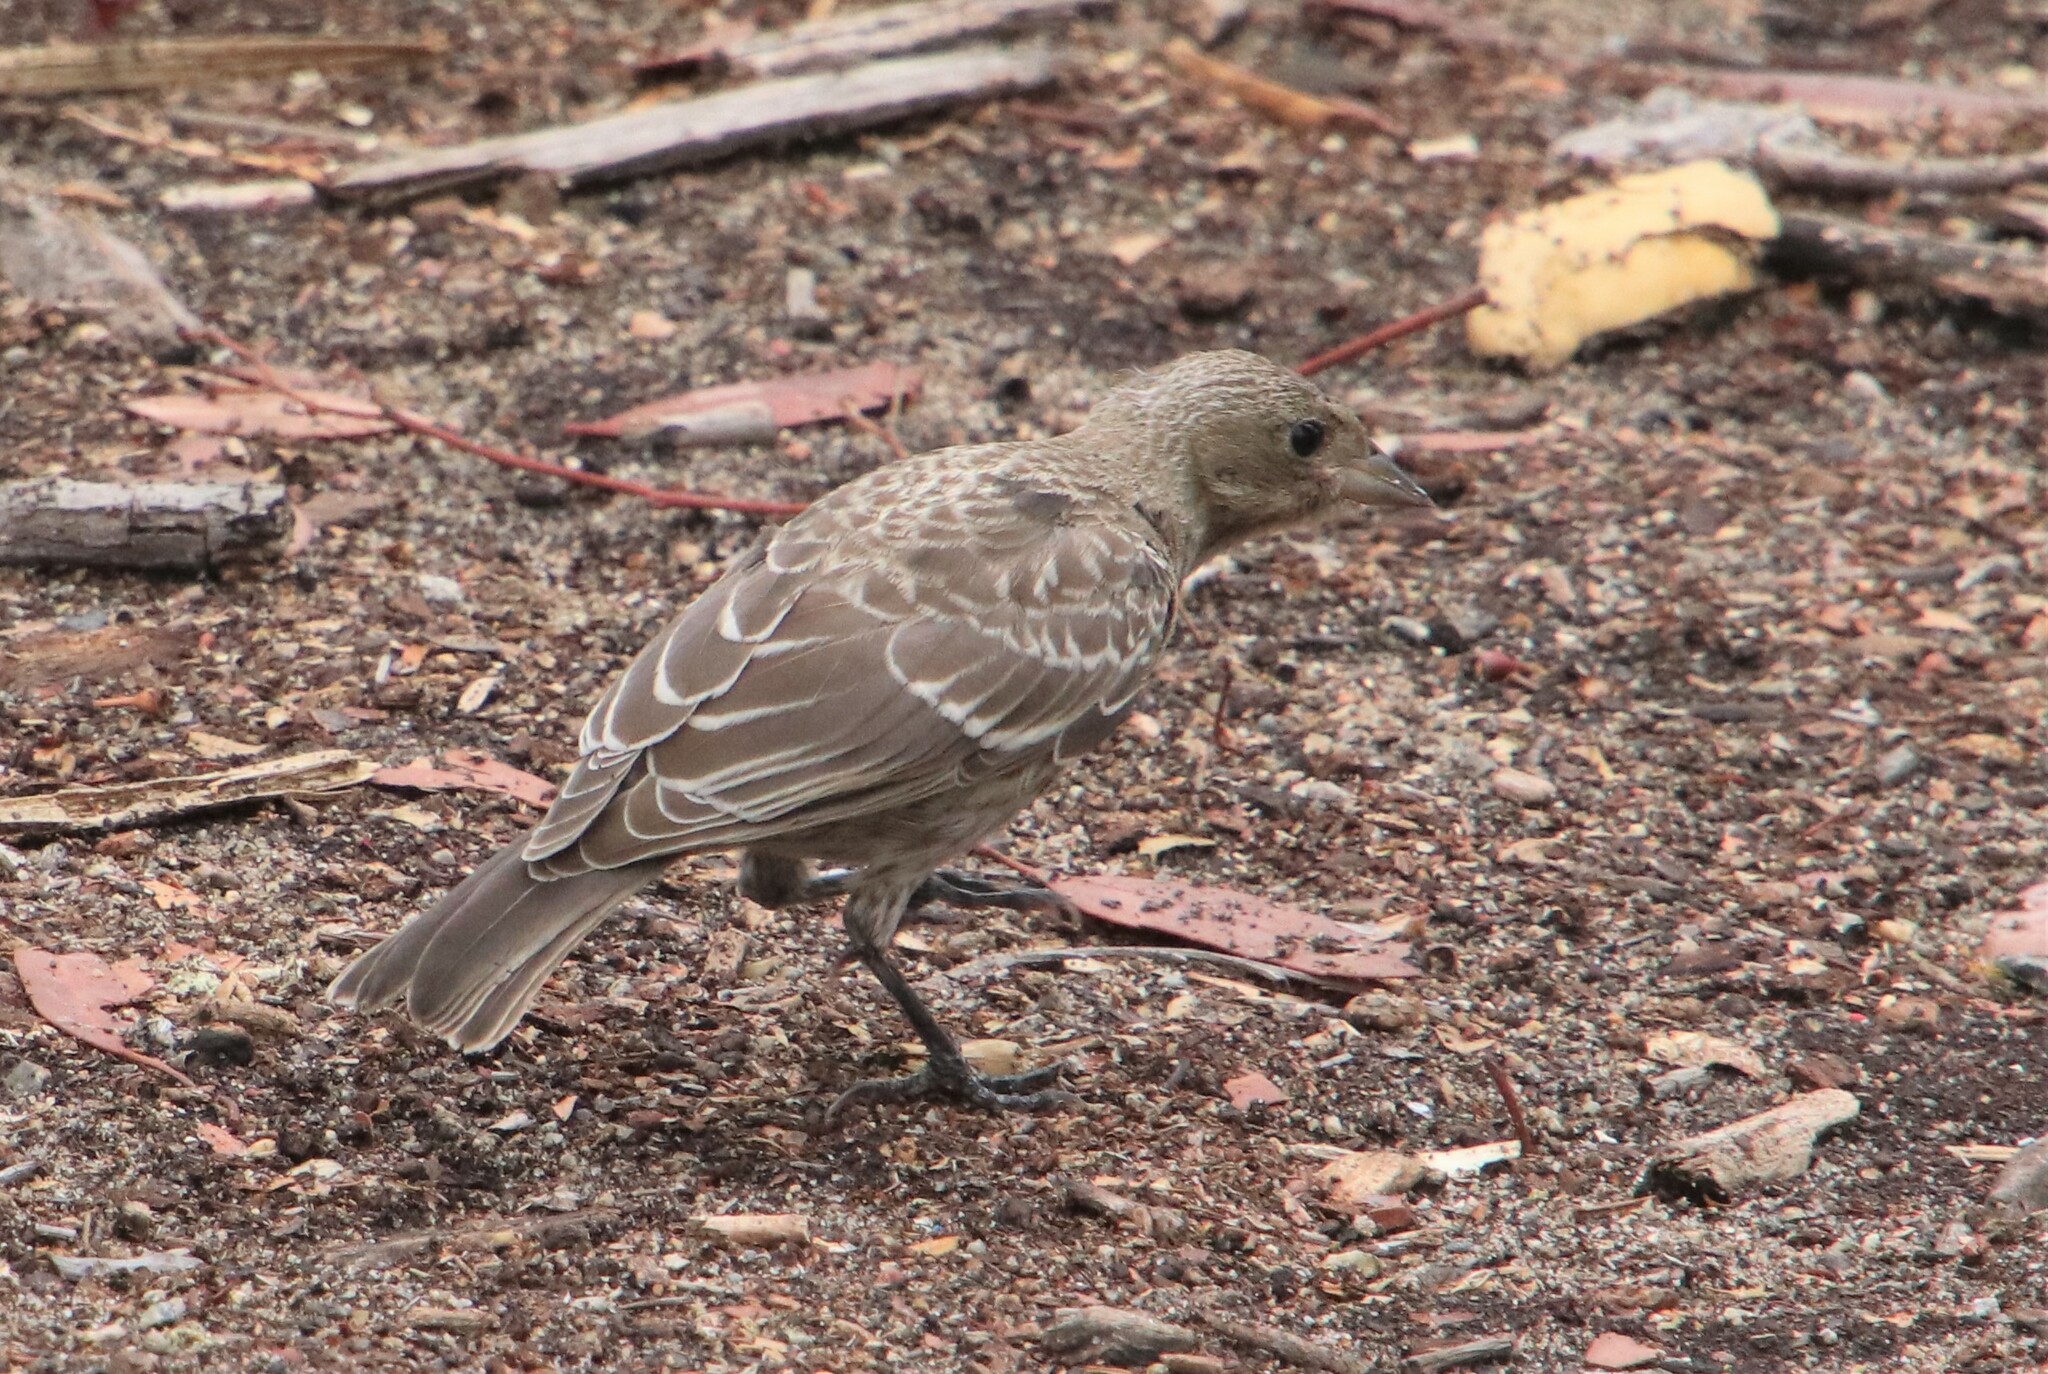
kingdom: Animalia
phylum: Chordata
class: Aves
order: Passeriformes
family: Icteridae
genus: Molothrus
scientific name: Molothrus ater
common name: Brown-headed cowbird
